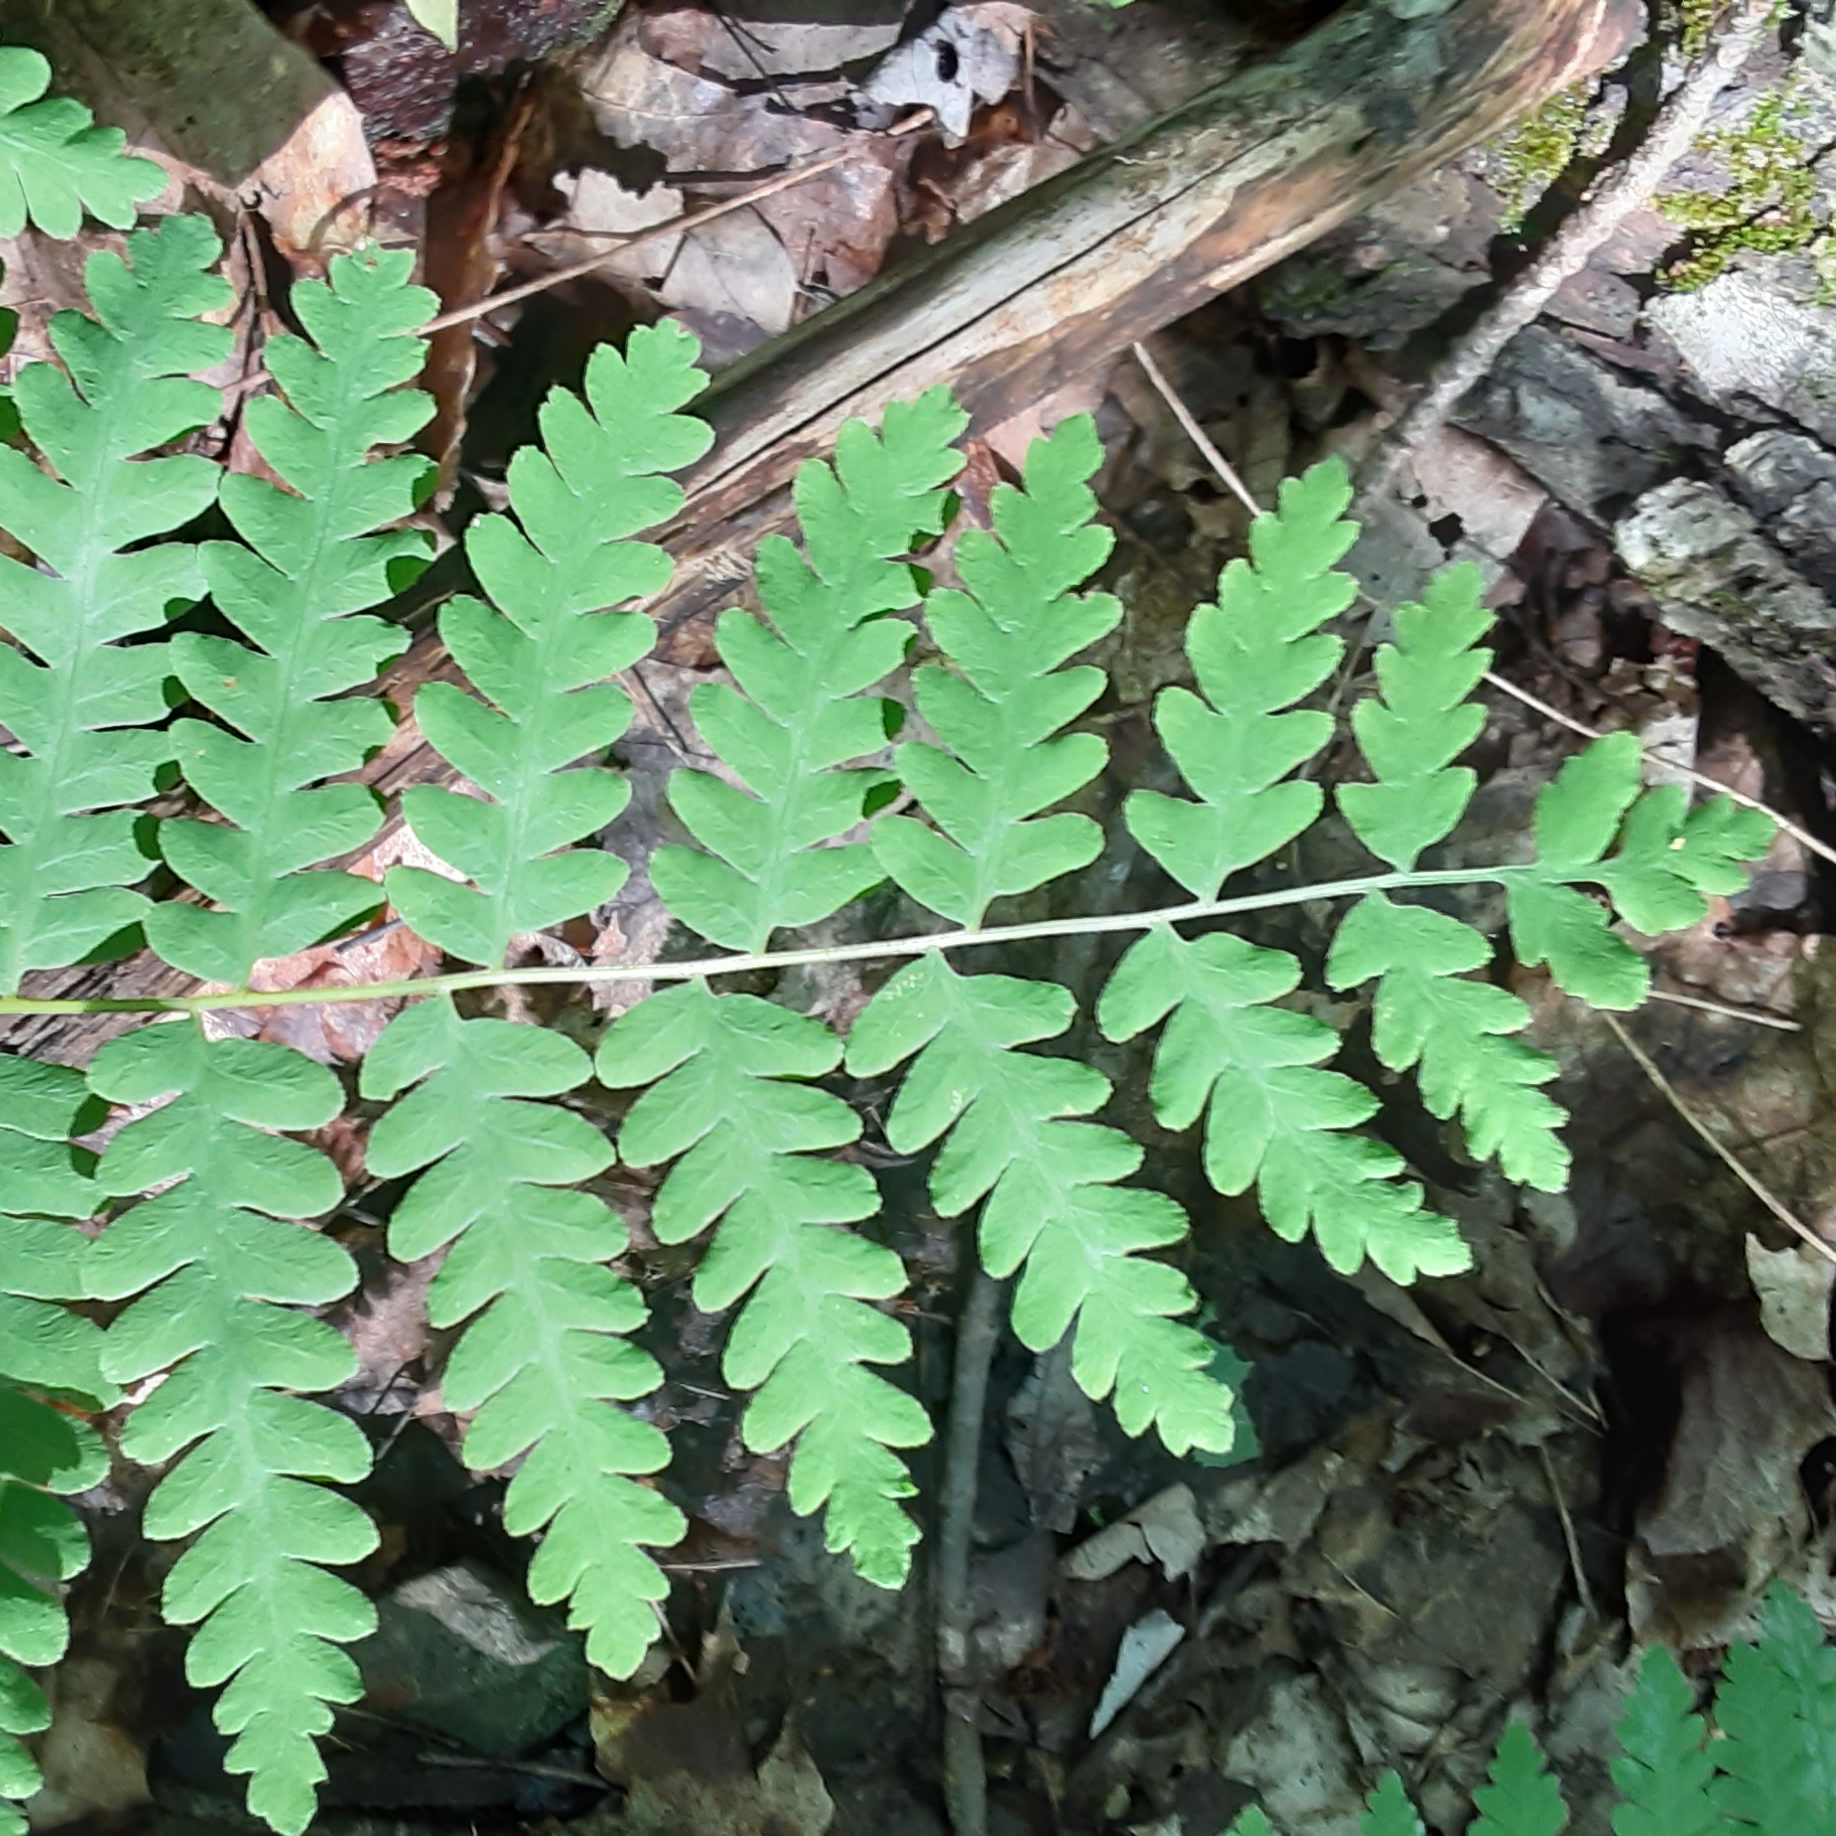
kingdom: Plantae
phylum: Tracheophyta
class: Polypodiopsida
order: Osmundales
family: Osmundaceae
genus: Claytosmunda
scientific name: Claytosmunda claytoniana
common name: Clayton's fern
